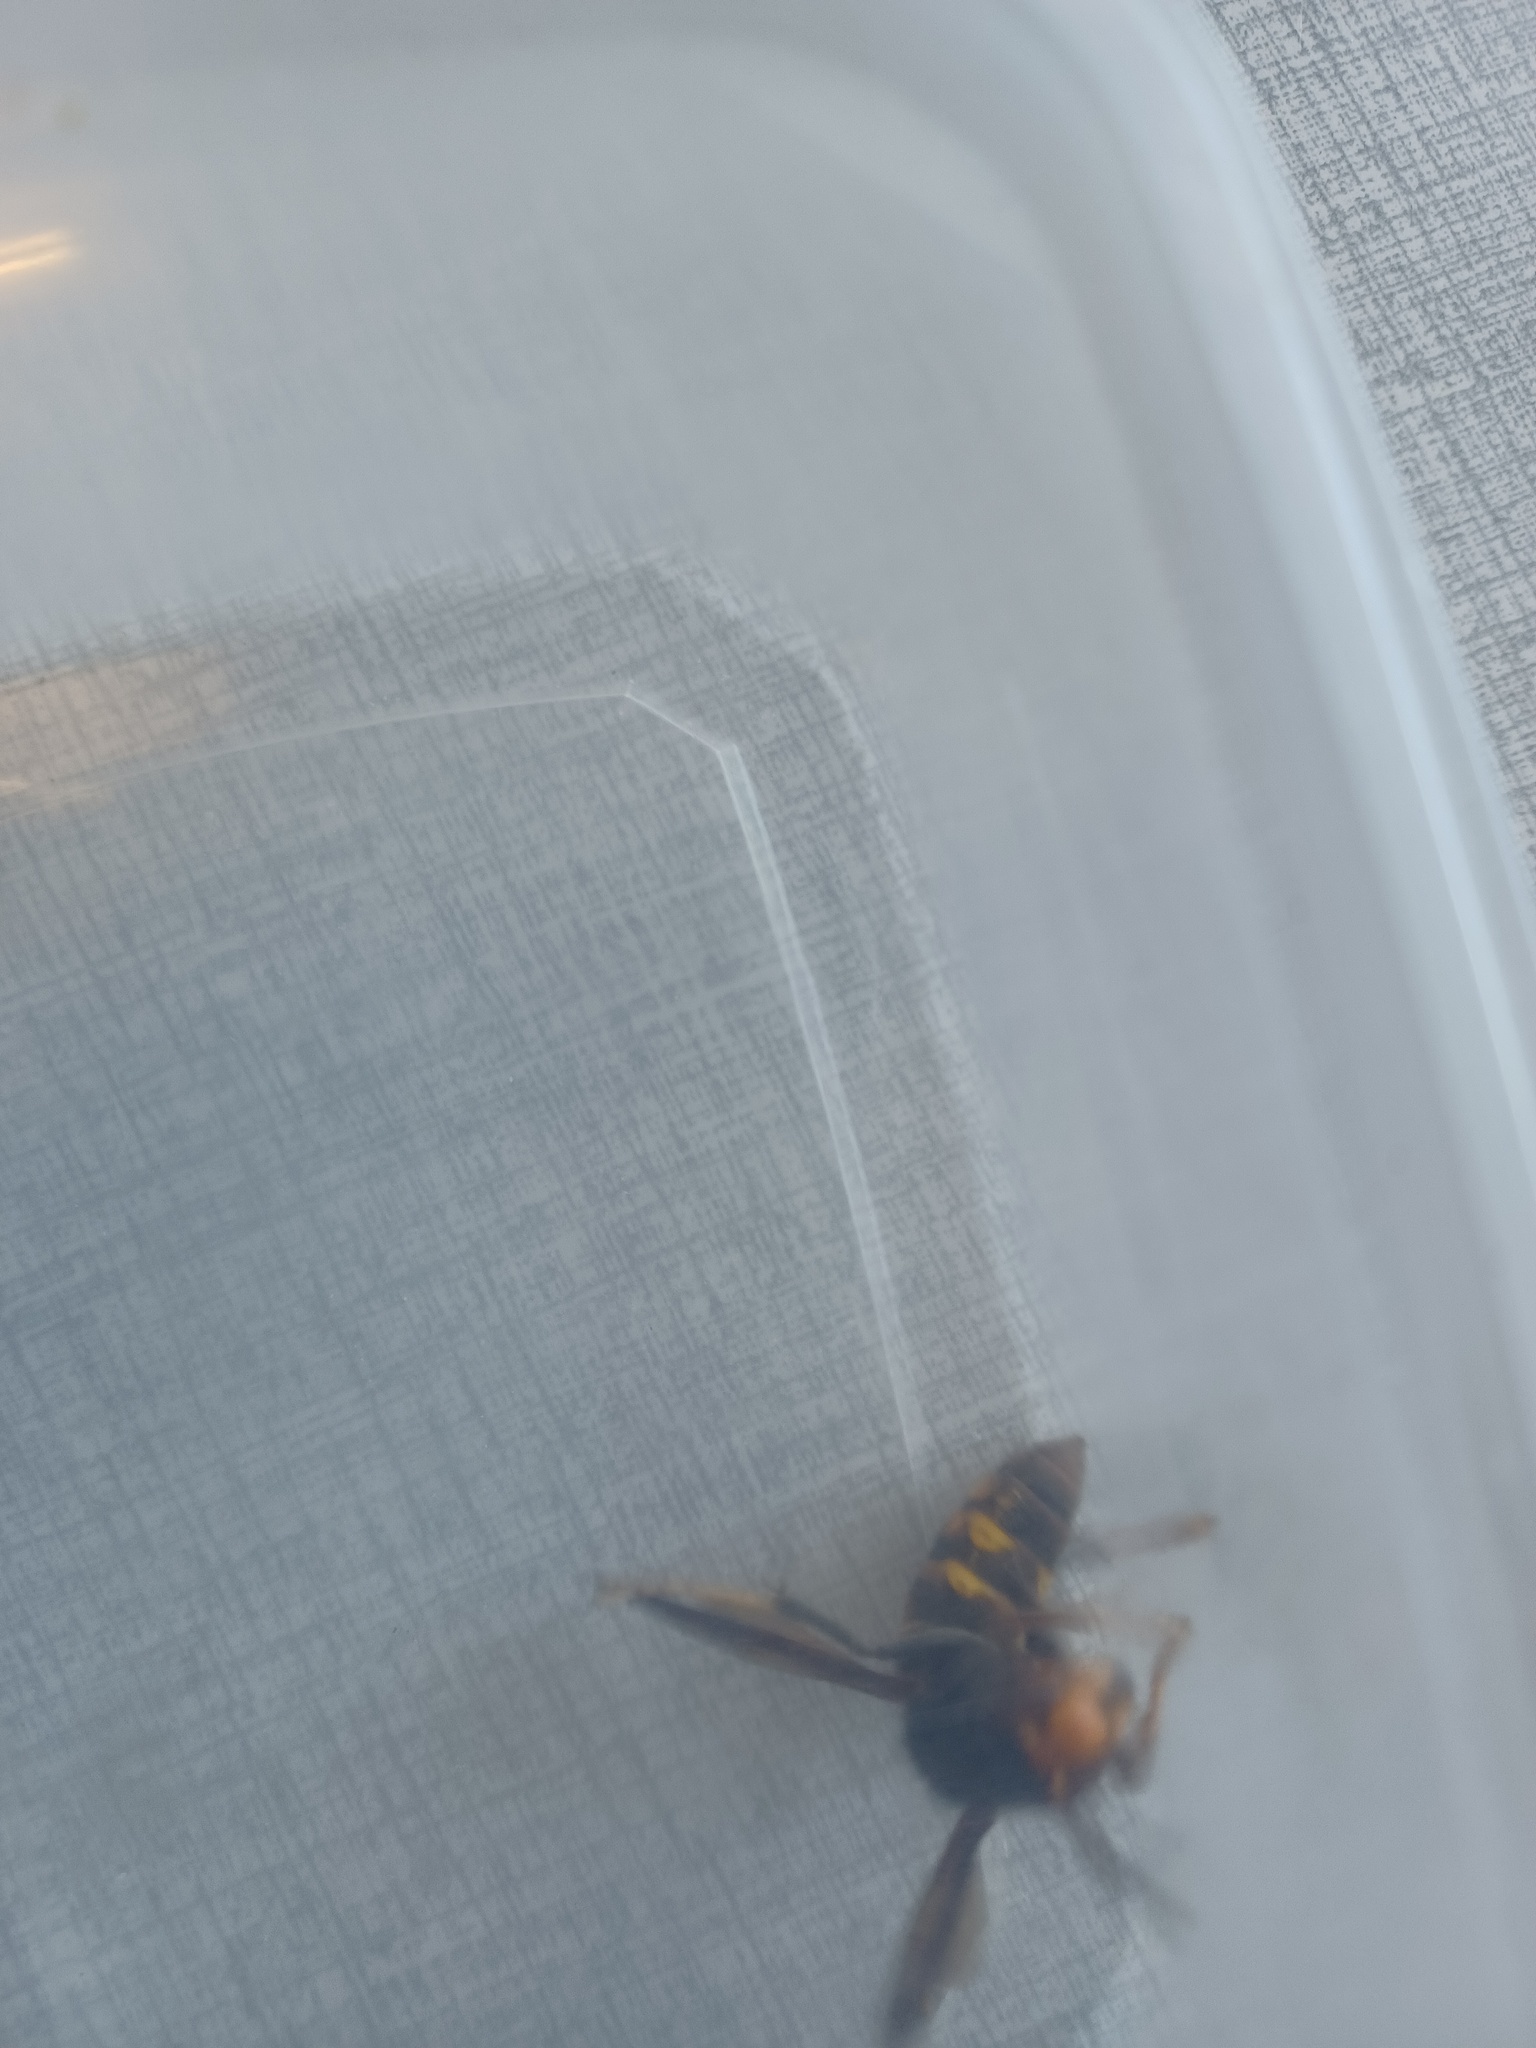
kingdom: Animalia
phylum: Arthropoda
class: Insecta
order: Hymenoptera
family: Vespidae
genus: Vespa
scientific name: Vespa velutina
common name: Asian hornet
